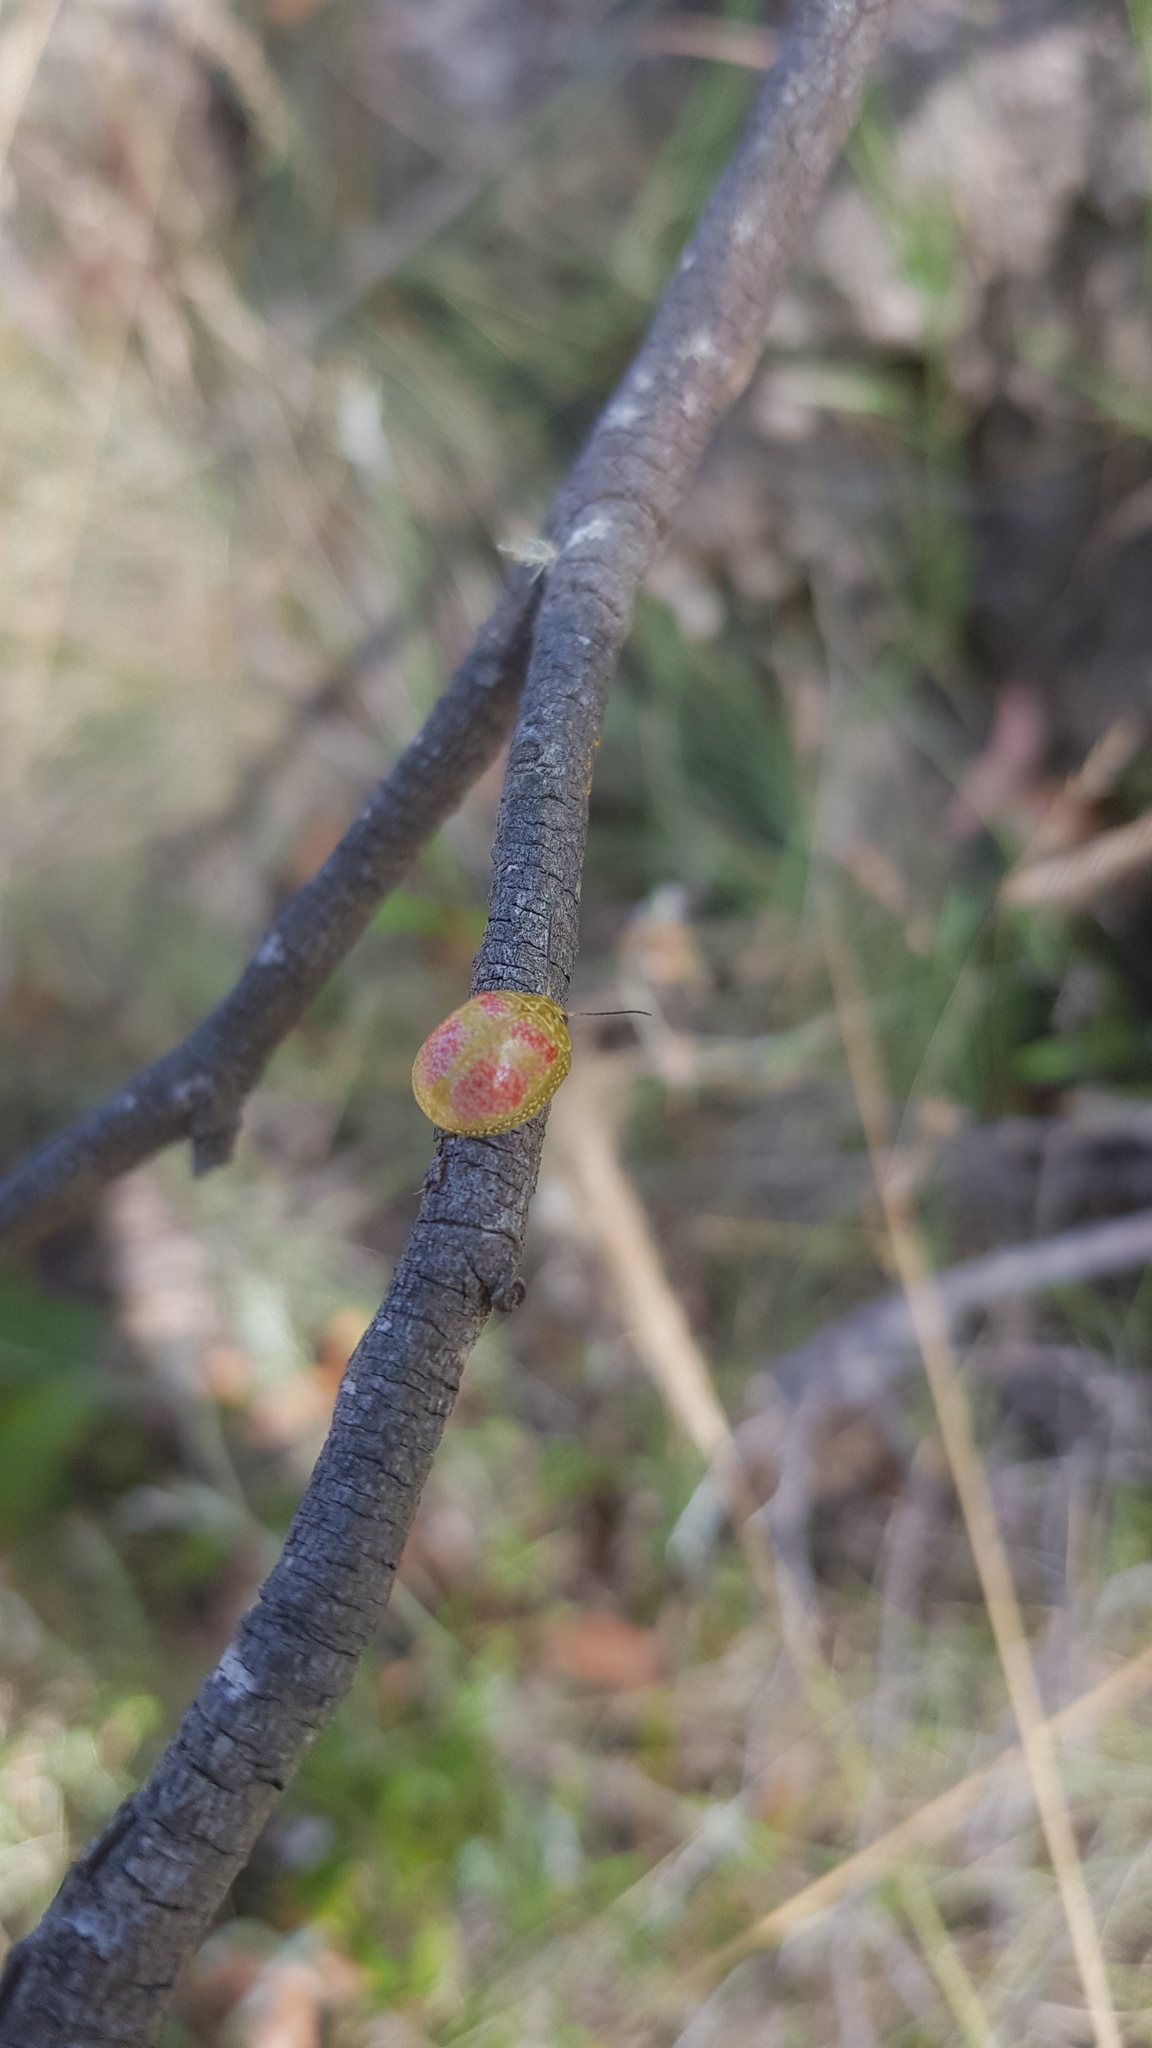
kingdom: Animalia
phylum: Arthropoda
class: Insecta
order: Coleoptera
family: Chrysomelidae
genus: Paropsisterna
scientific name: Paropsisterna
